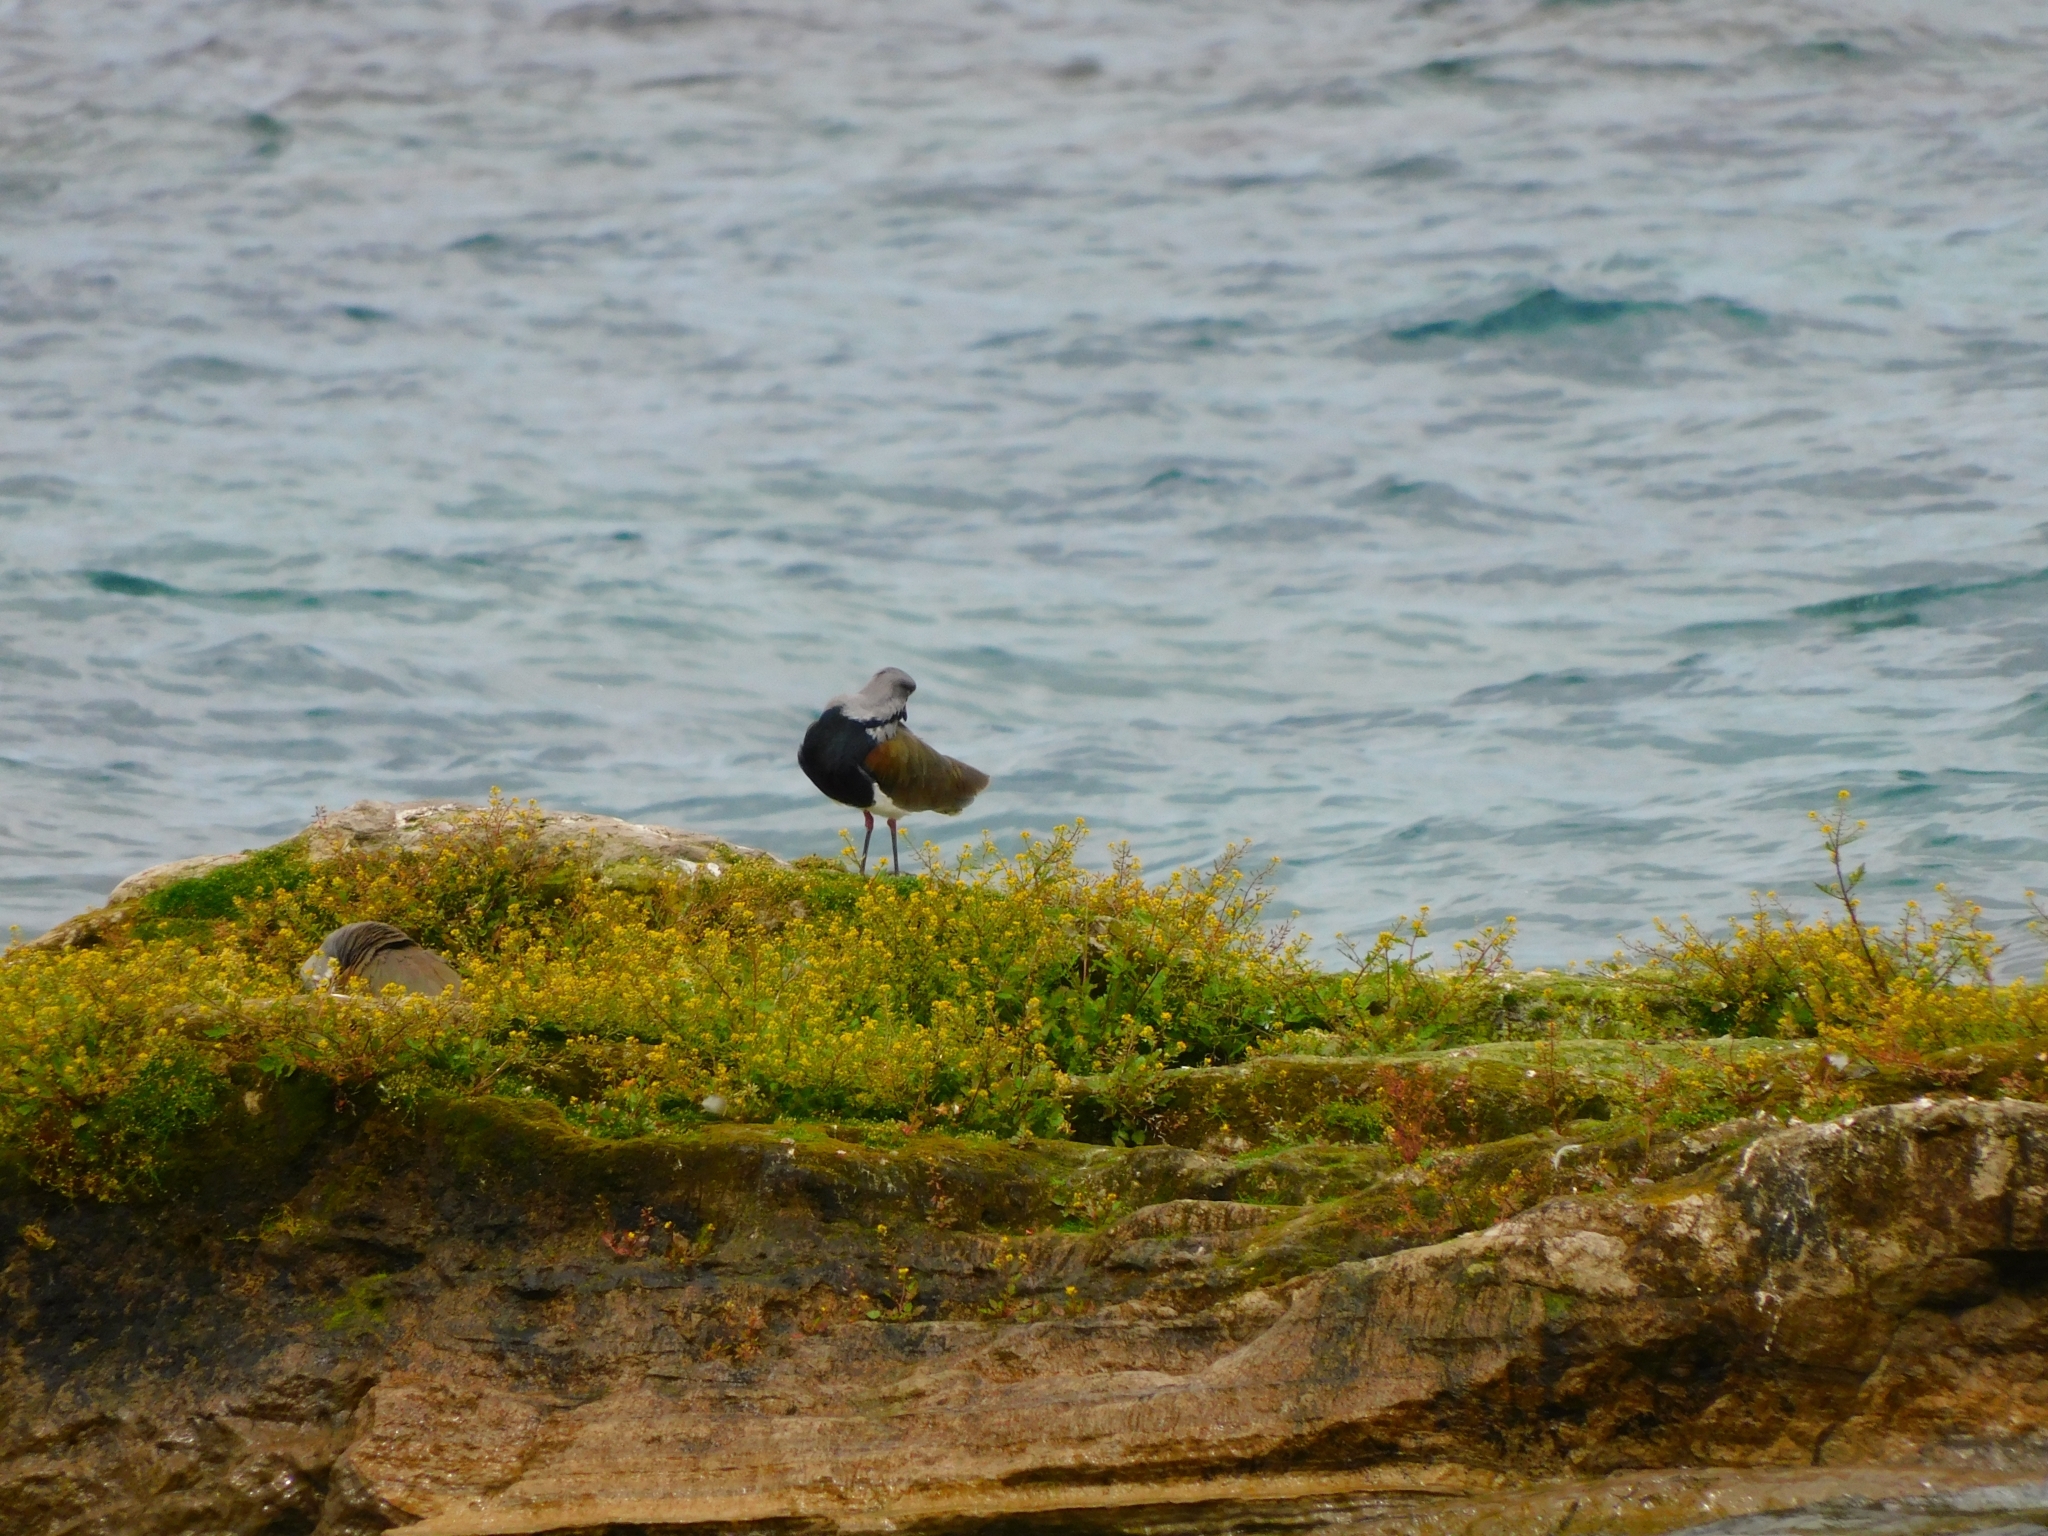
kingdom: Animalia
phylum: Chordata
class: Aves
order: Charadriiformes
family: Charadriidae
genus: Vanellus
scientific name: Vanellus chilensis
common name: Southern lapwing
